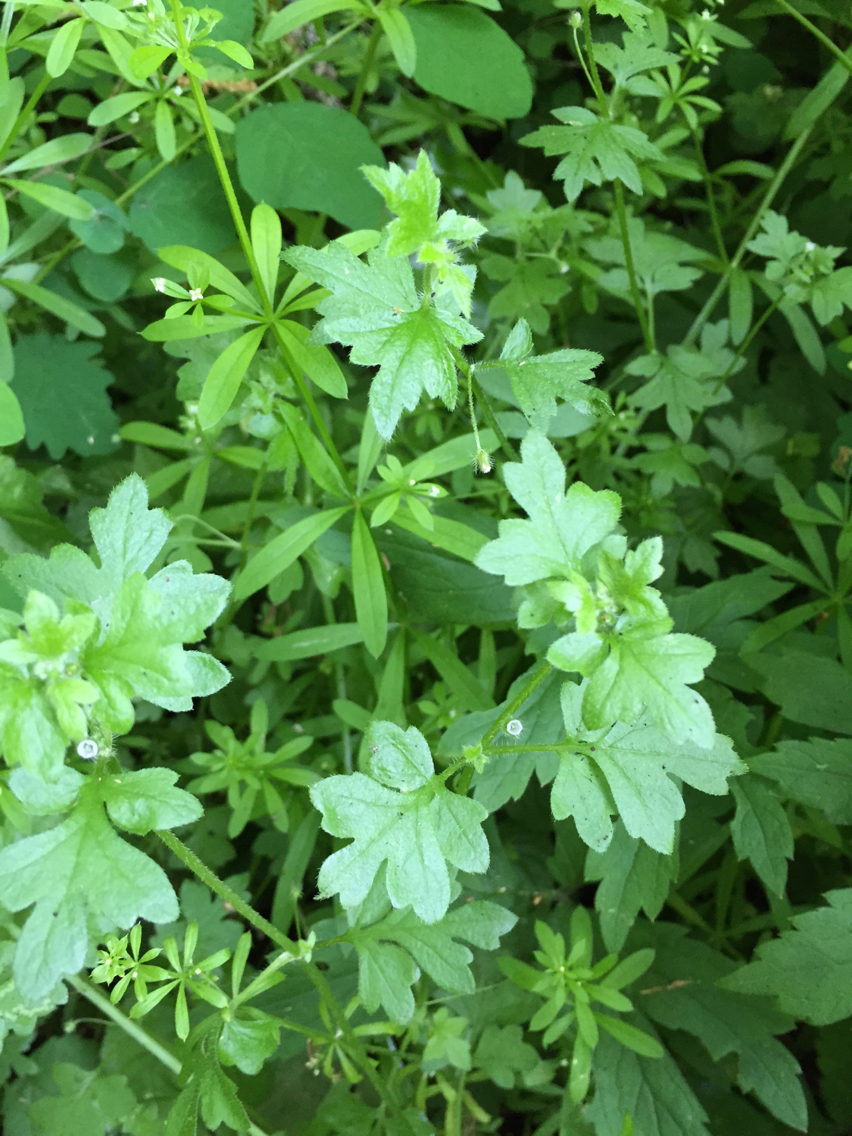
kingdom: Plantae
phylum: Tracheophyta
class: Magnoliopsida
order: Boraginales
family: Hydrophyllaceae
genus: Nemophila
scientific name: Nemophila parviflora
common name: Small-flowered baby-blue-eyes
